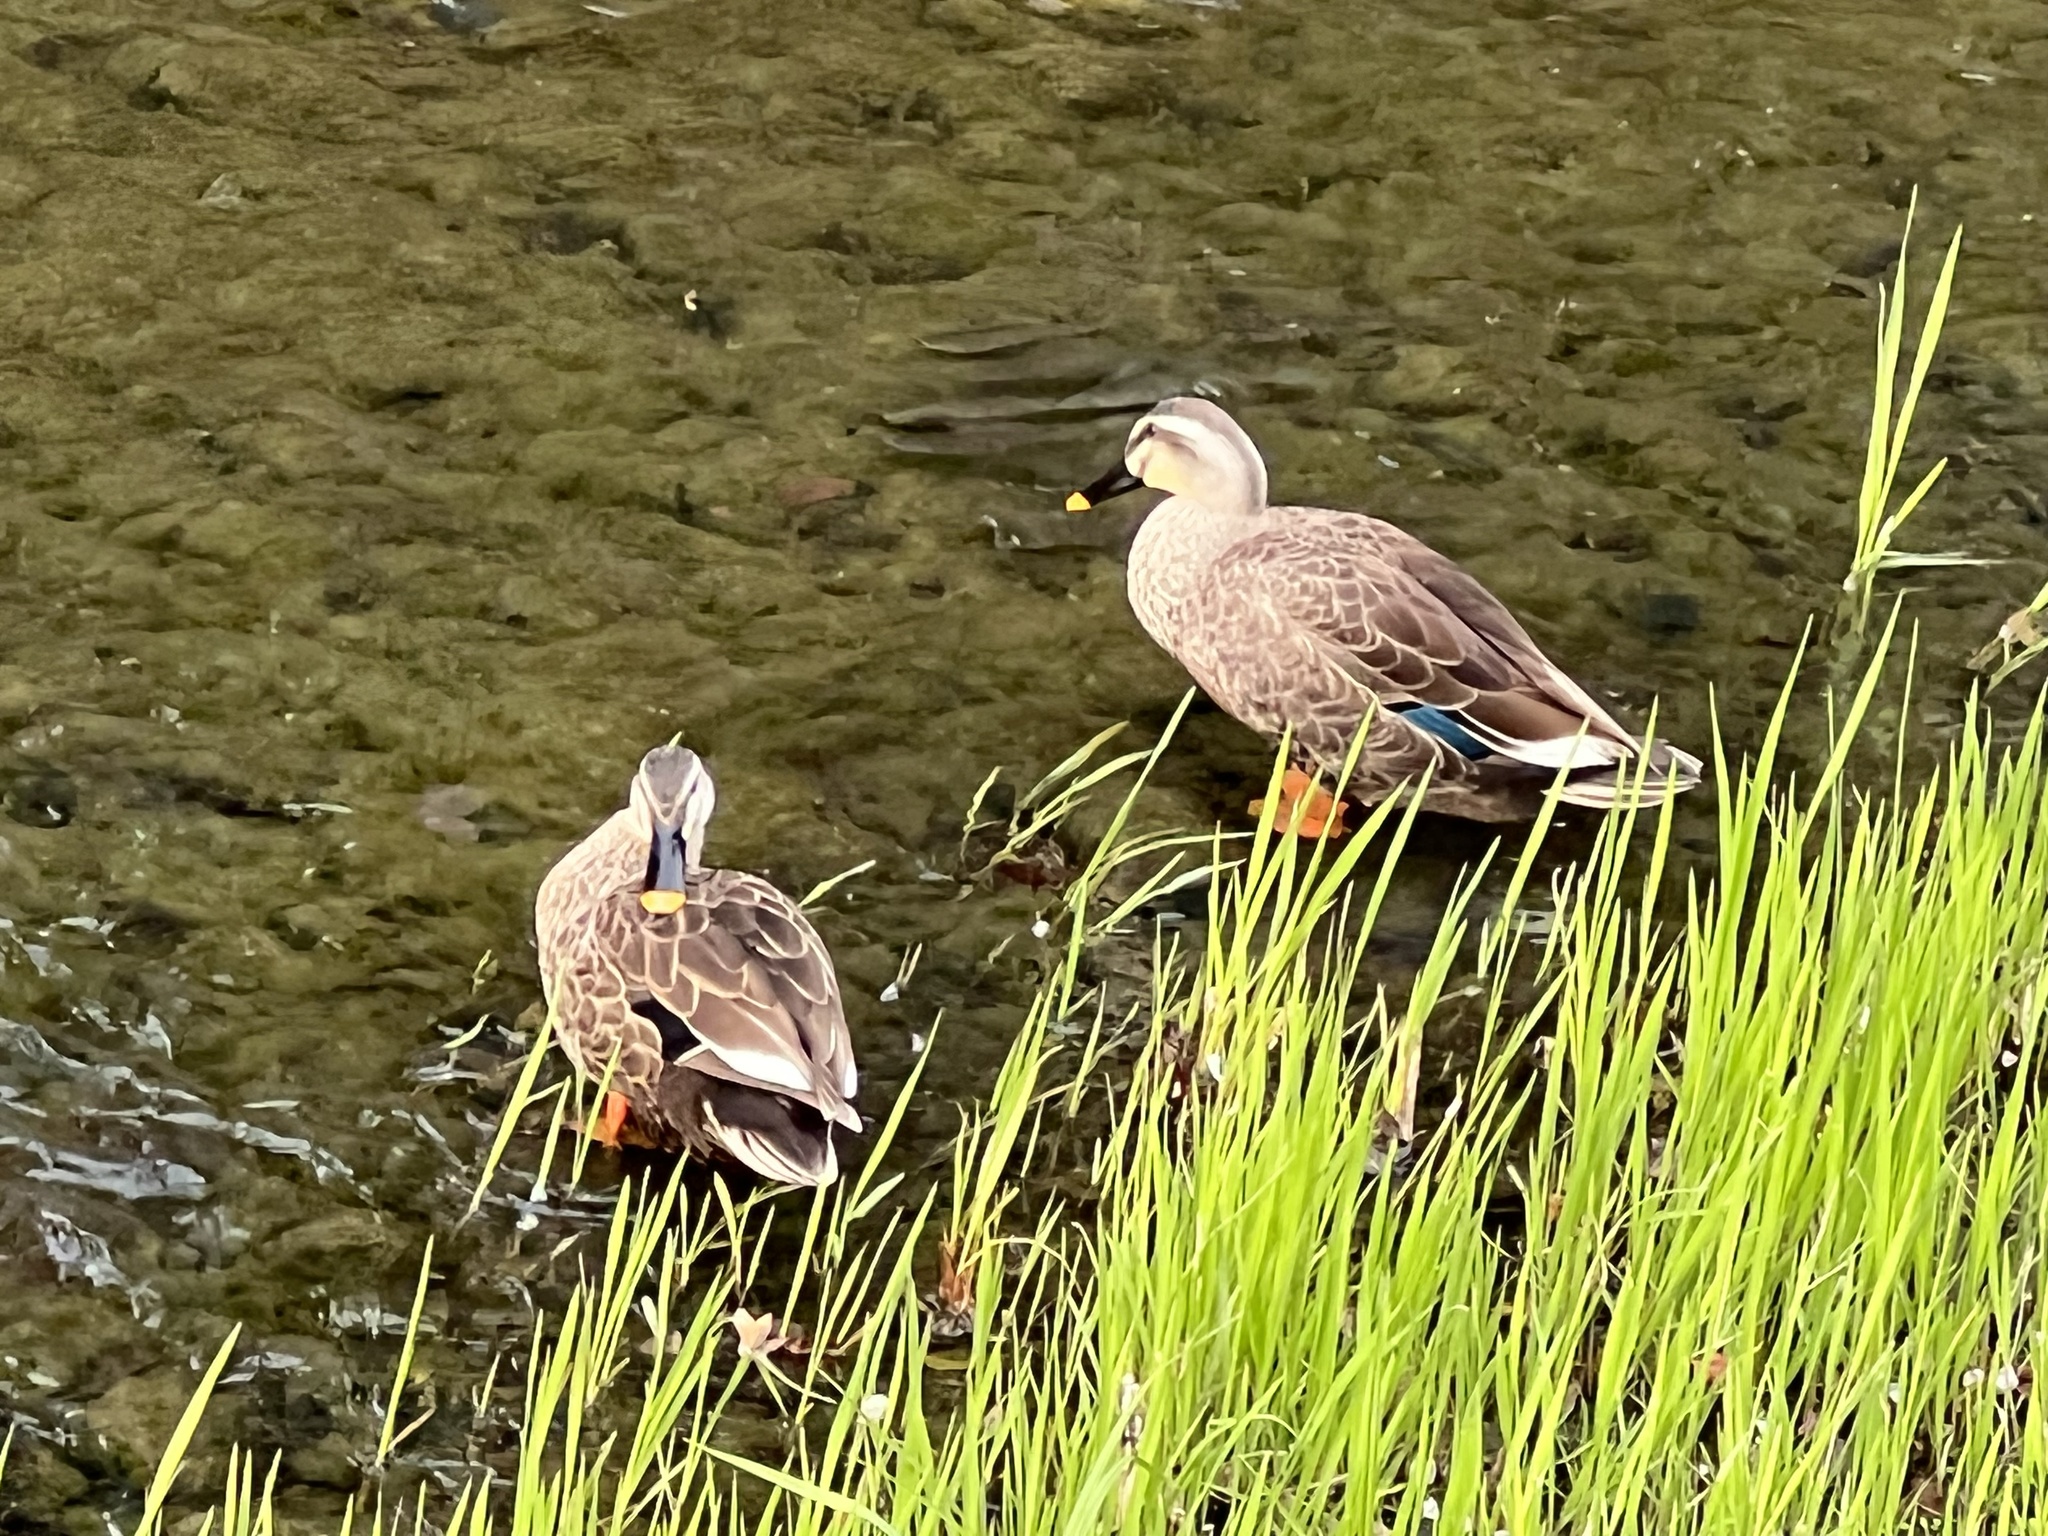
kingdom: Animalia
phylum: Chordata
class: Aves
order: Anseriformes
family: Anatidae
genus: Anas
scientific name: Anas zonorhyncha
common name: Eastern spot-billed duck
